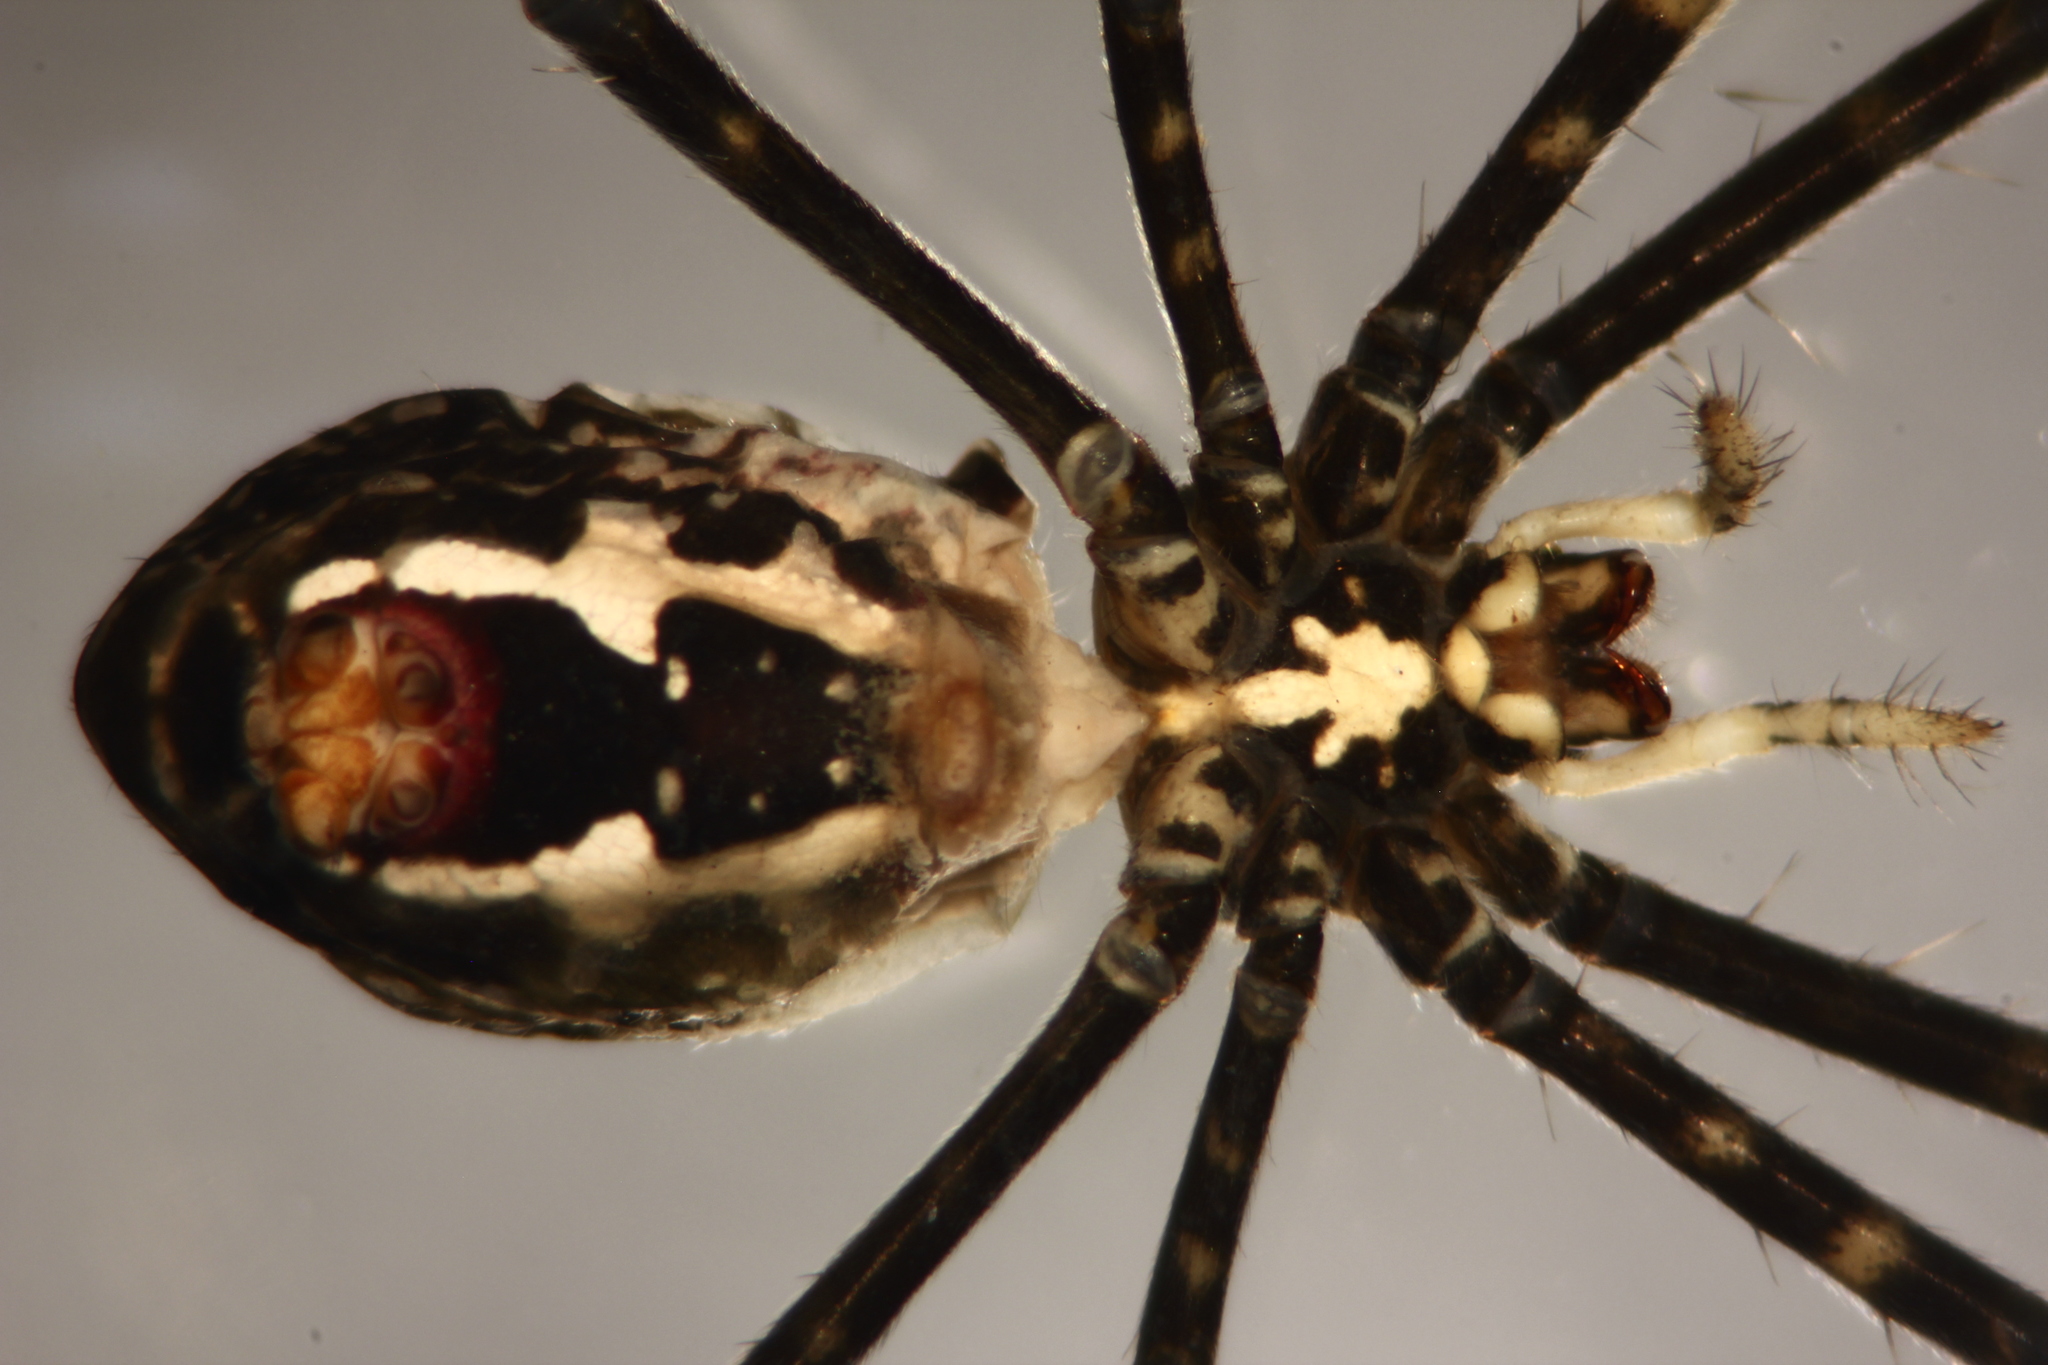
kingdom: Animalia
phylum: Arthropoda
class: Arachnida
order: Araneae
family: Araneidae
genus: Argiope
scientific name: Argiope aemula
